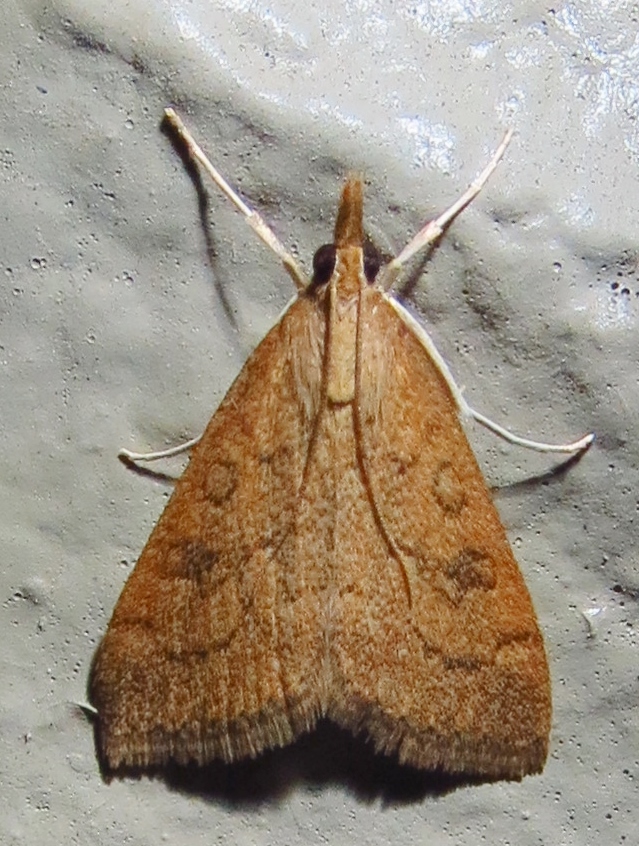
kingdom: Animalia
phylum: Arthropoda
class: Insecta
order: Lepidoptera
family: Crambidae
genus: Udea
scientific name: Udea rubigalis
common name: Celery leaftier moth
